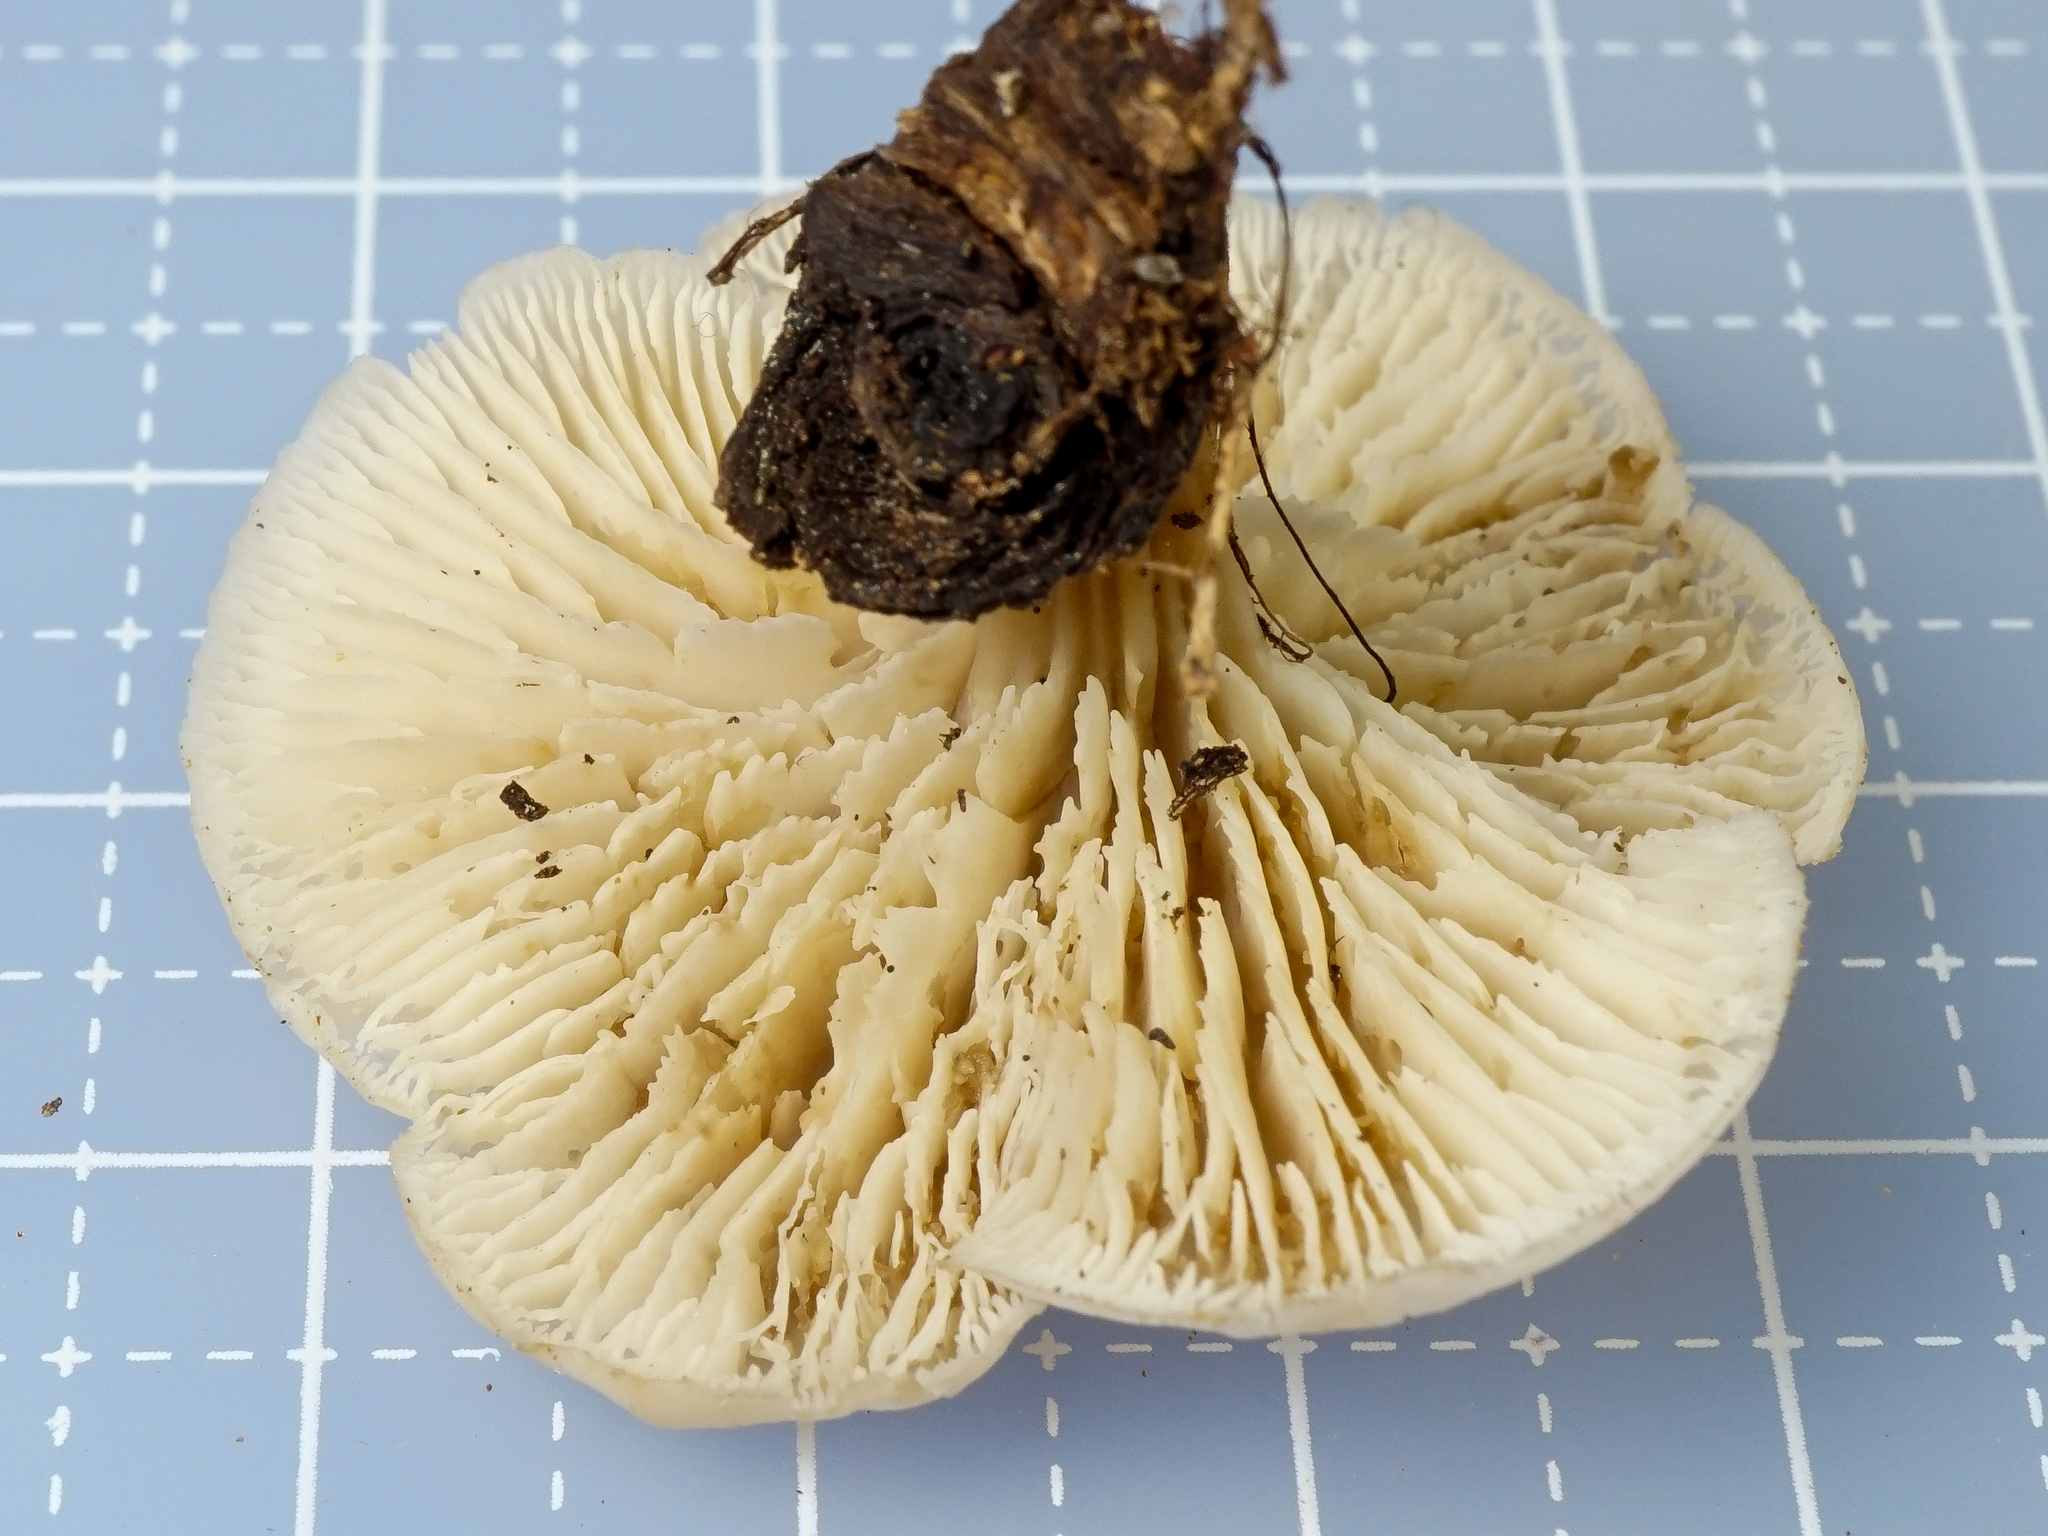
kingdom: Fungi
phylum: Basidiomycota
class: Agaricomycetes
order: Russulales
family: Auriscalpiaceae
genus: Lentinellus
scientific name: Lentinellus subaustralis
